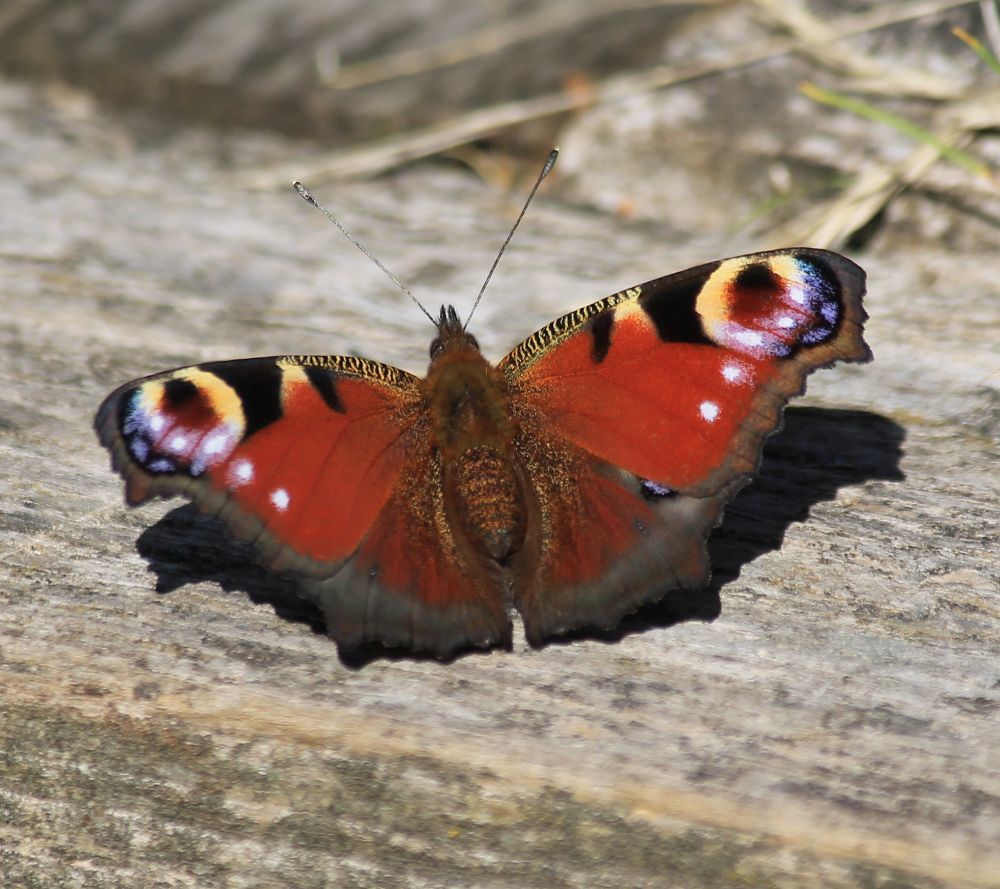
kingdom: Animalia
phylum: Arthropoda
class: Insecta
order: Lepidoptera
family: Nymphalidae
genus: Aglais
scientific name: Aglais io
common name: Peacock
